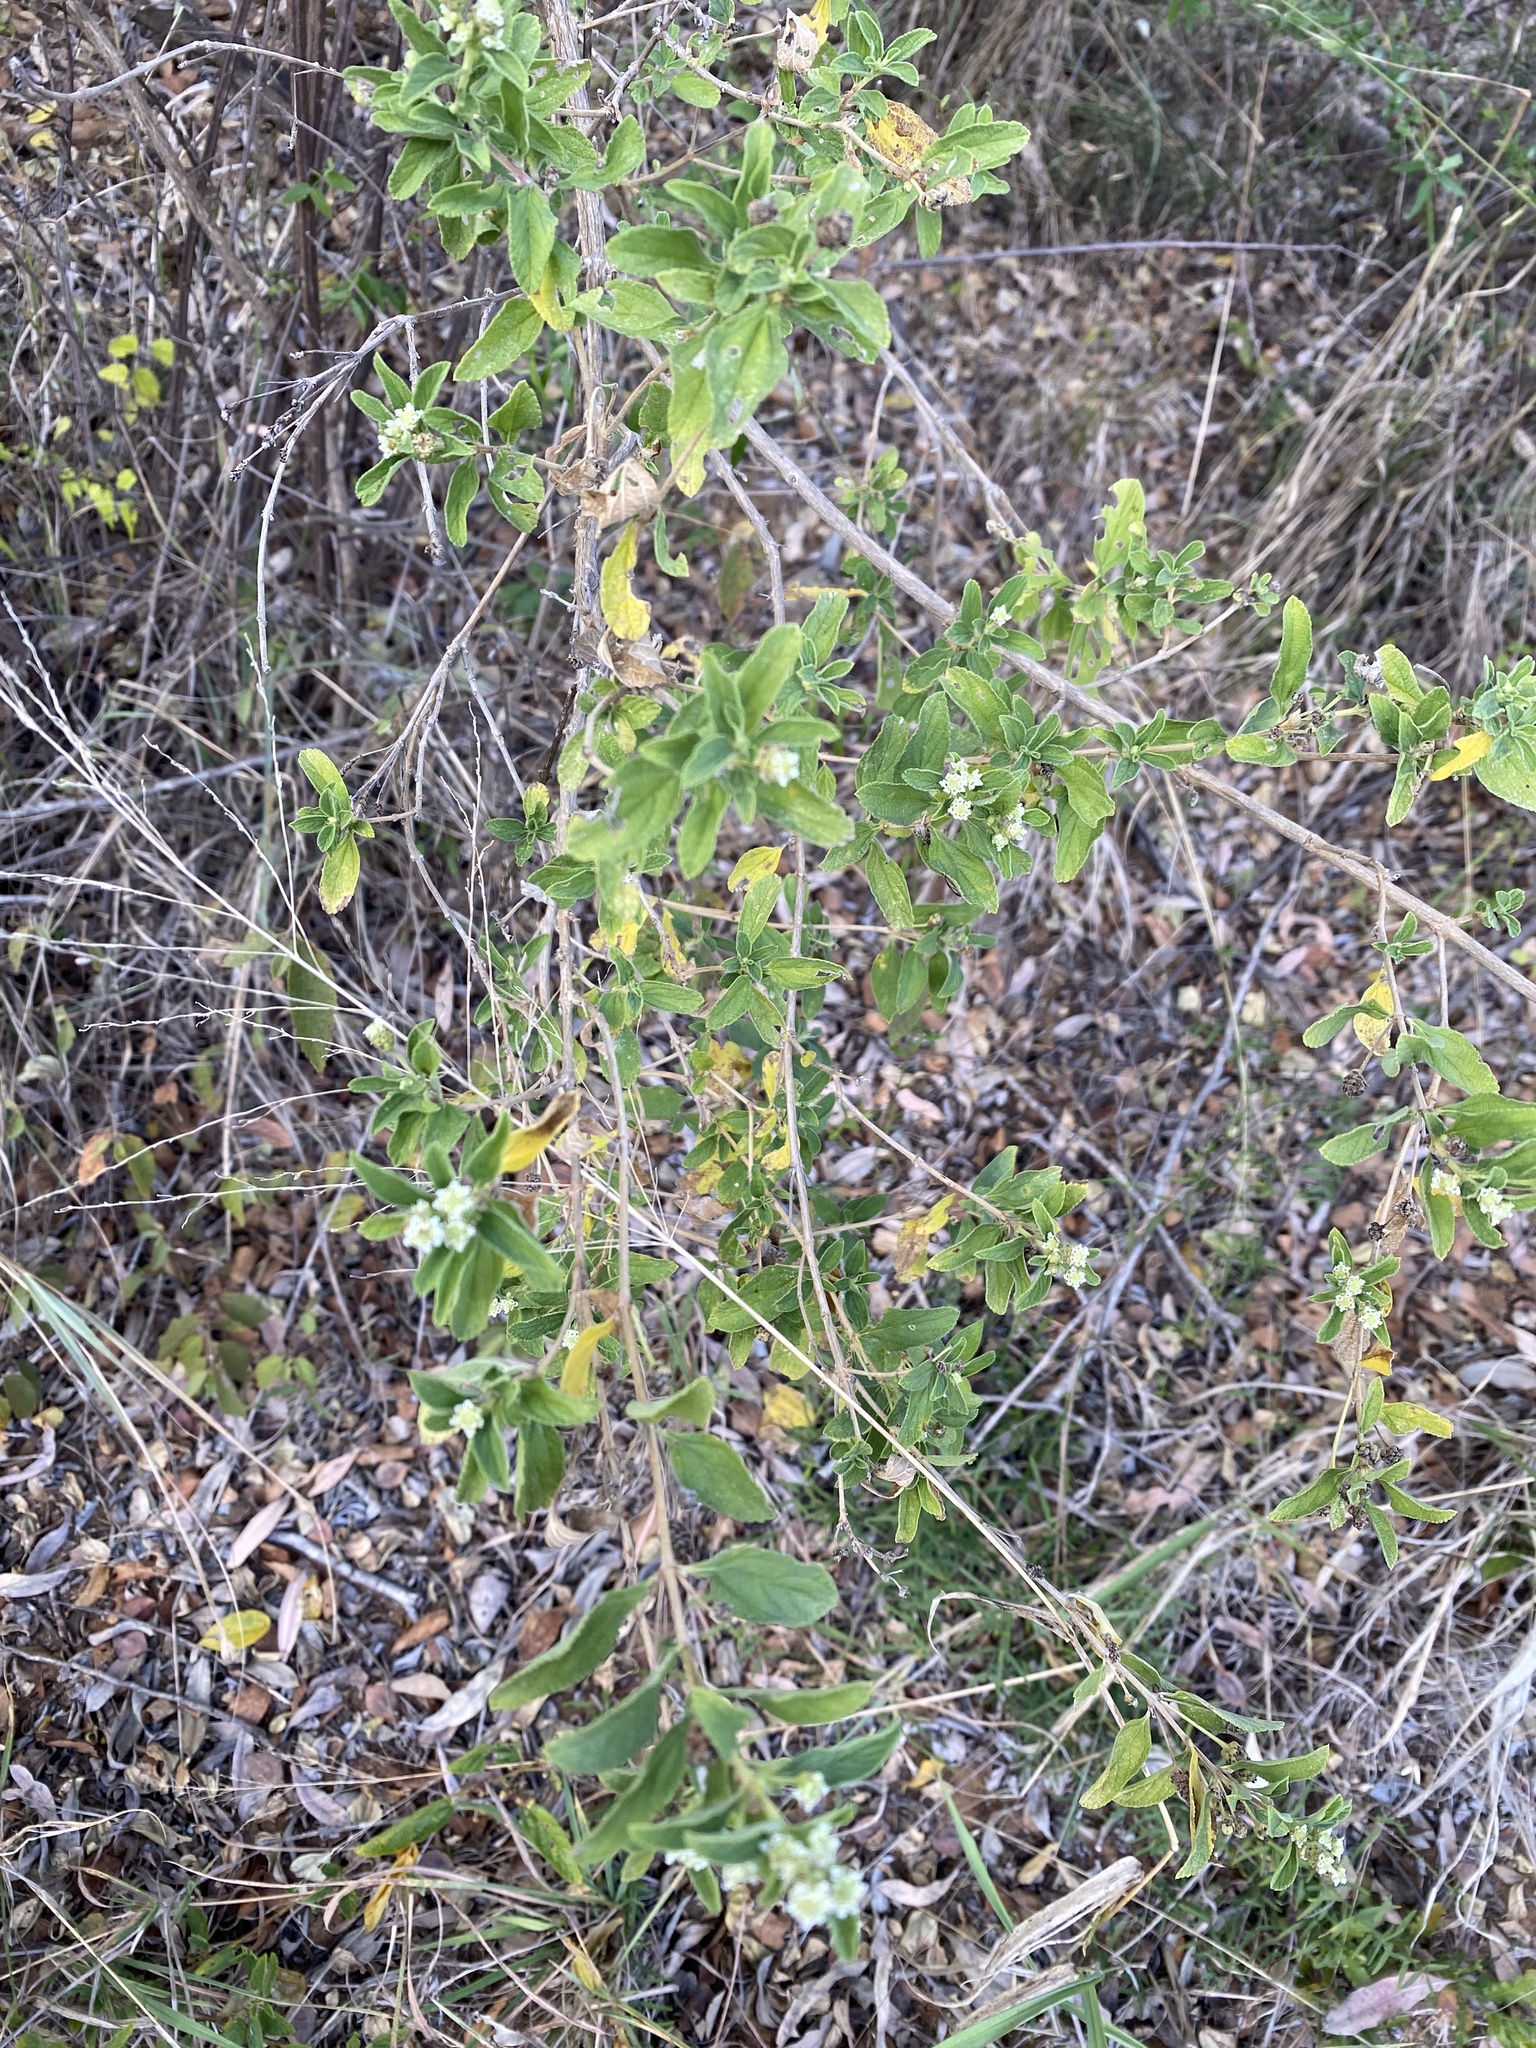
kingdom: Plantae
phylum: Tracheophyta
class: Magnoliopsida
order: Lamiales
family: Verbenaceae
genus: Lippia
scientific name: Lippia javanica
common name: Lemonbush
